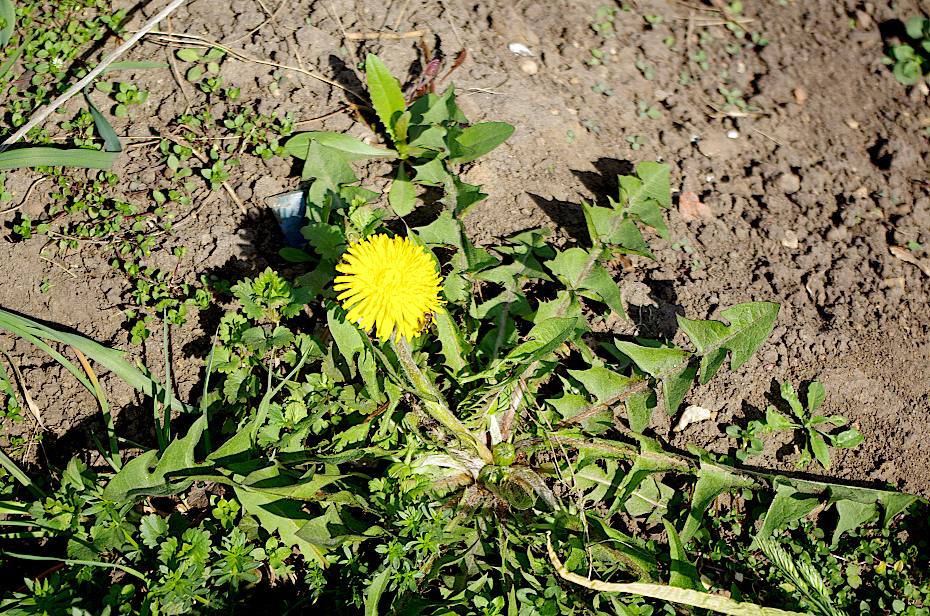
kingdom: Plantae
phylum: Tracheophyta
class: Magnoliopsida
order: Asterales
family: Asteraceae
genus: Taraxacum
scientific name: Taraxacum officinale
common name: Common dandelion
